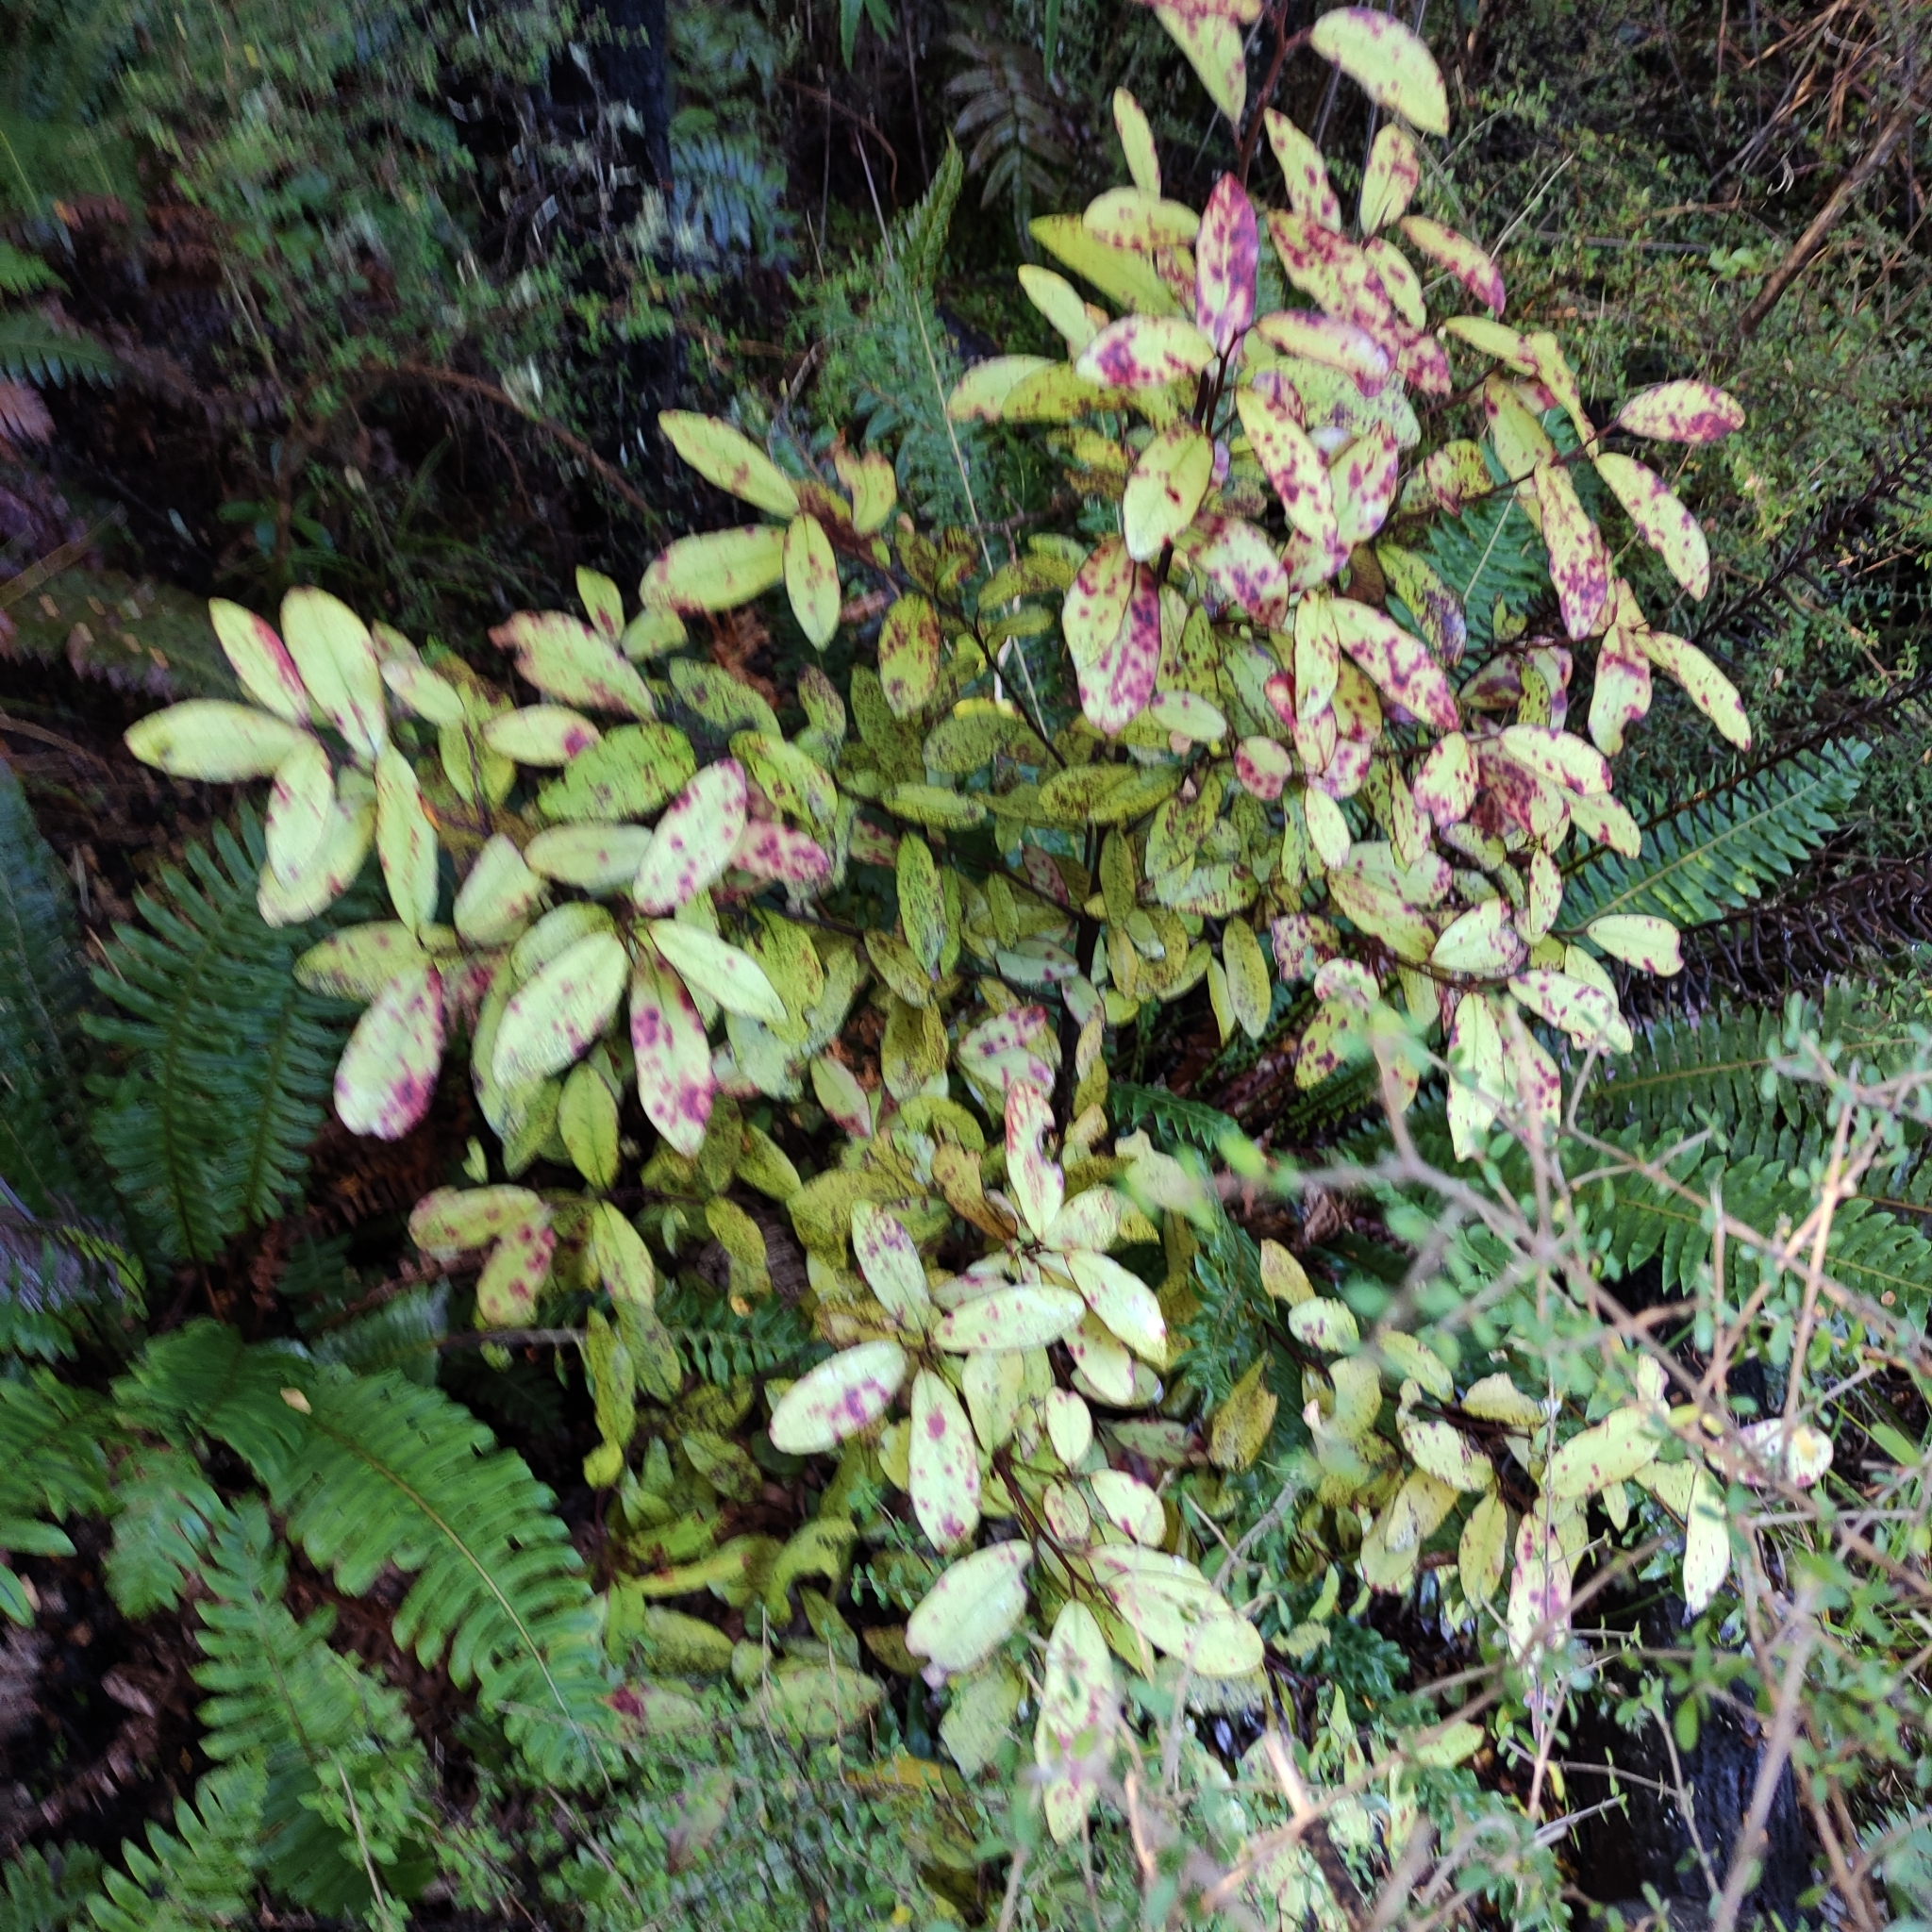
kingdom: Plantae
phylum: Tracheophyta
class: Magnoliopsida
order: Canellales
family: Winteraceae
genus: Pseudowintera
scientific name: Pseudowintera colorata
